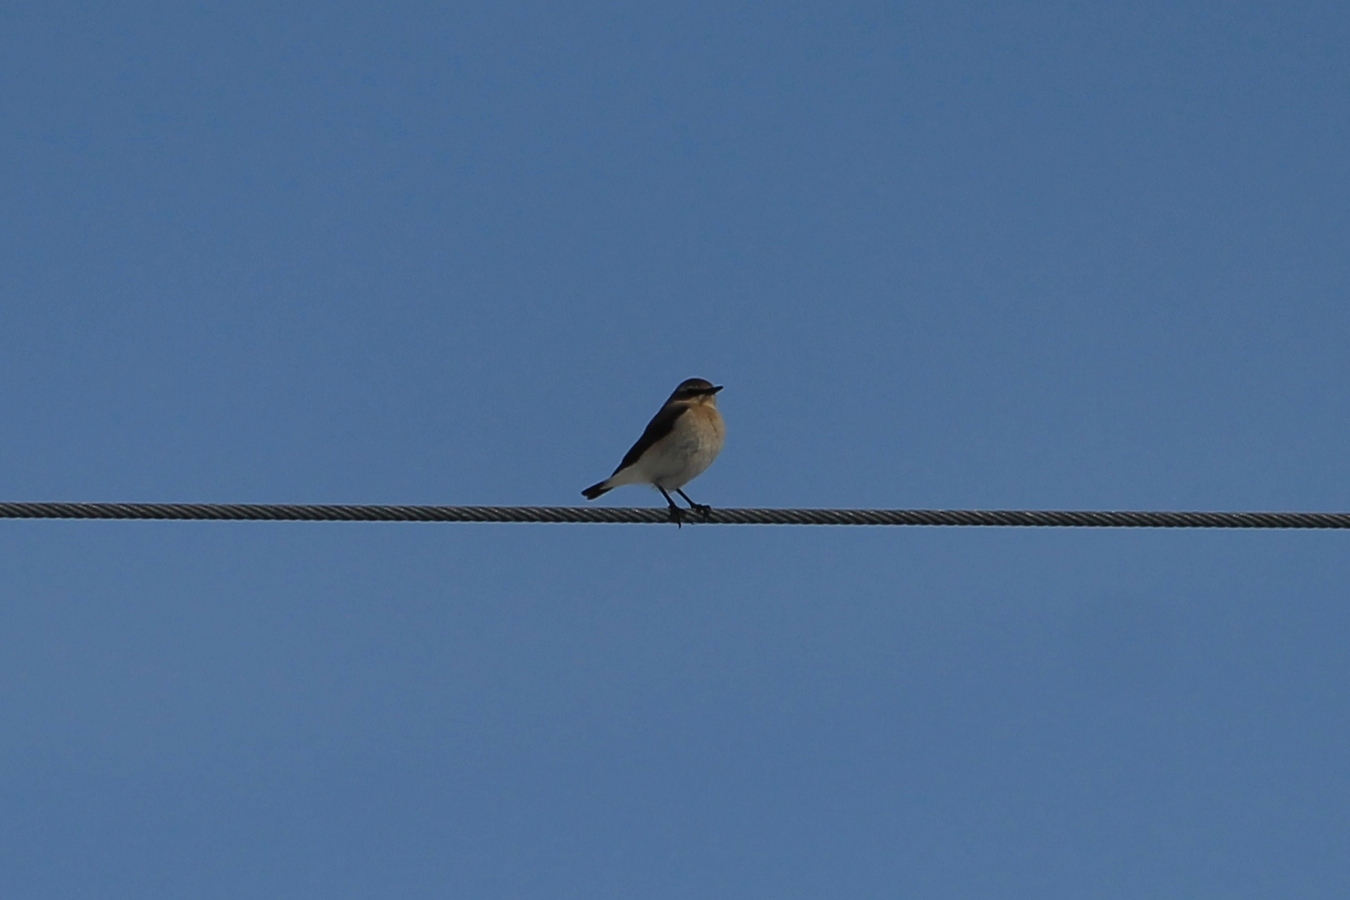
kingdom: Animalia
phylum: Chordata
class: Aves
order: Passeriformes
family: Muscicapidae
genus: Saxicola
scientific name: Saxicola rubetra
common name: Whinchat
